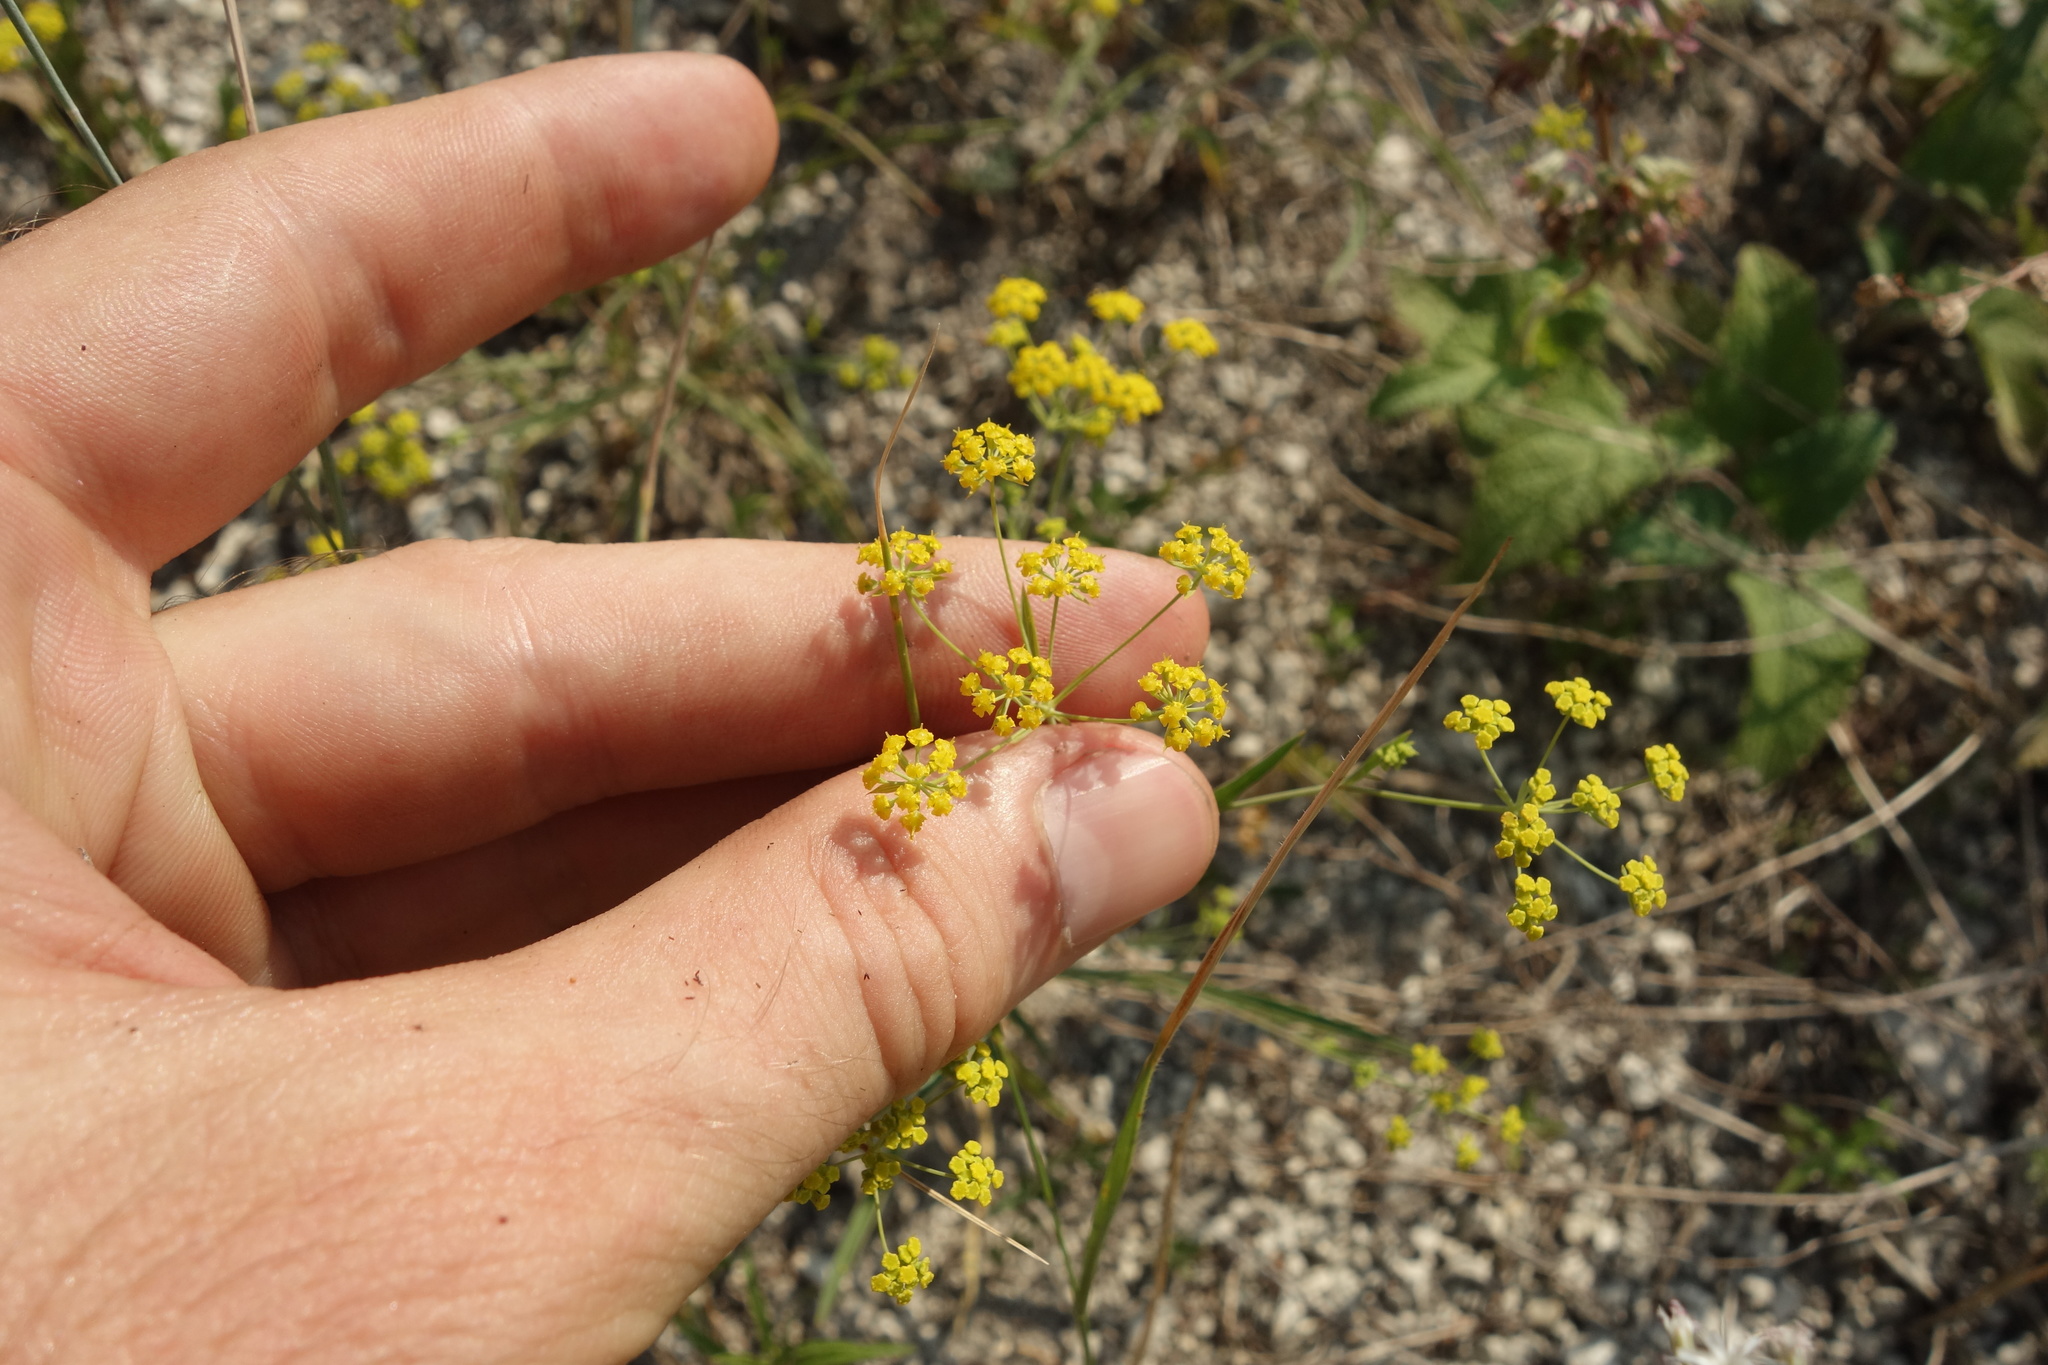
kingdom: Plantae
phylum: Tracheophyta
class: Magnoliopsida
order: Apiales
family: Apiaceae
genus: Bupleurum
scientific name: Bupleurum falcatum
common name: Sickle-leaved hare's-ear
